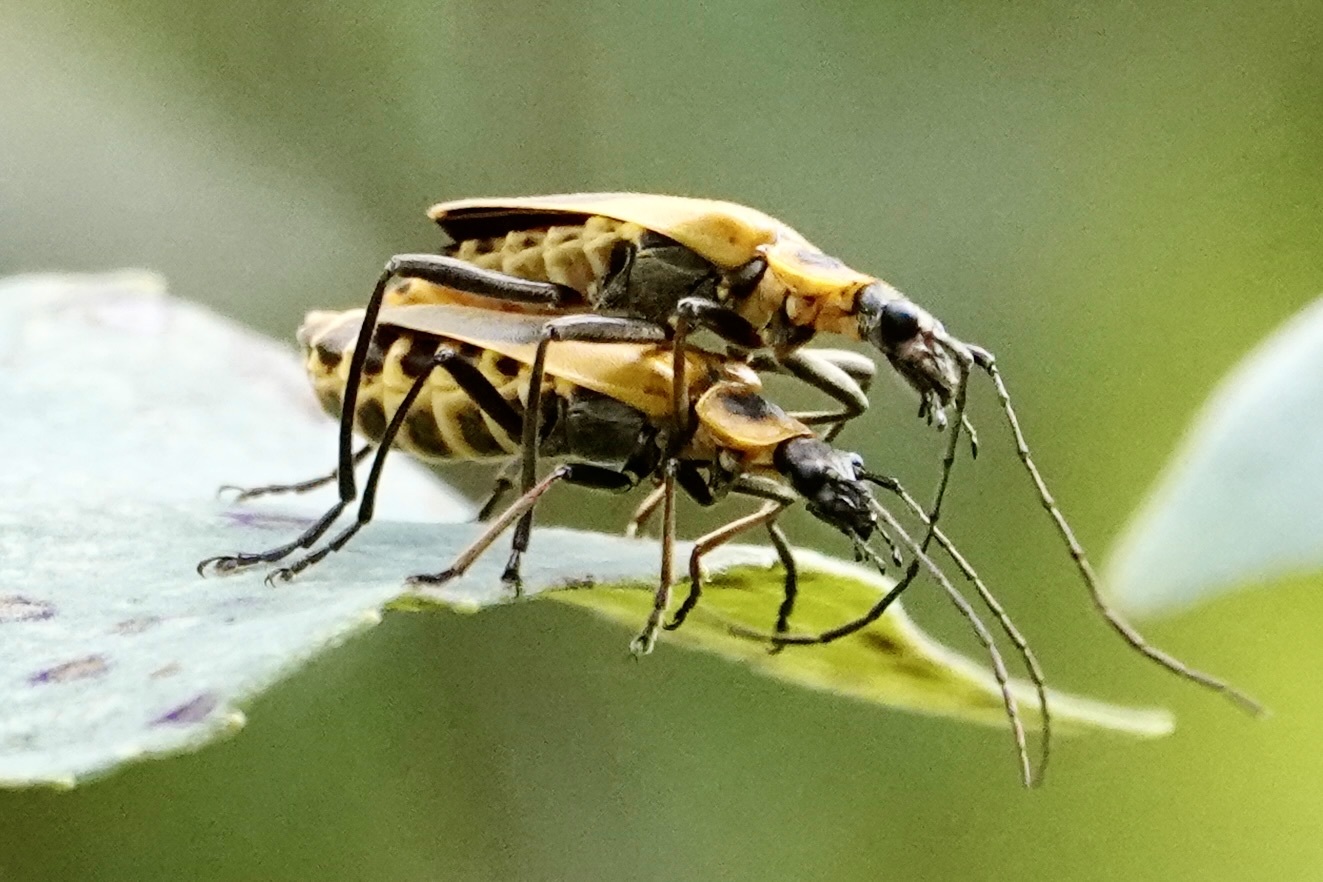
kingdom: Animalia
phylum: Arthropoda
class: Insecta
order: Coleoptera
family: Cantharidae
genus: Chauliognathus
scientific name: Chauliognathus pensylvanicus
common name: Goldenrod soldier beetle
